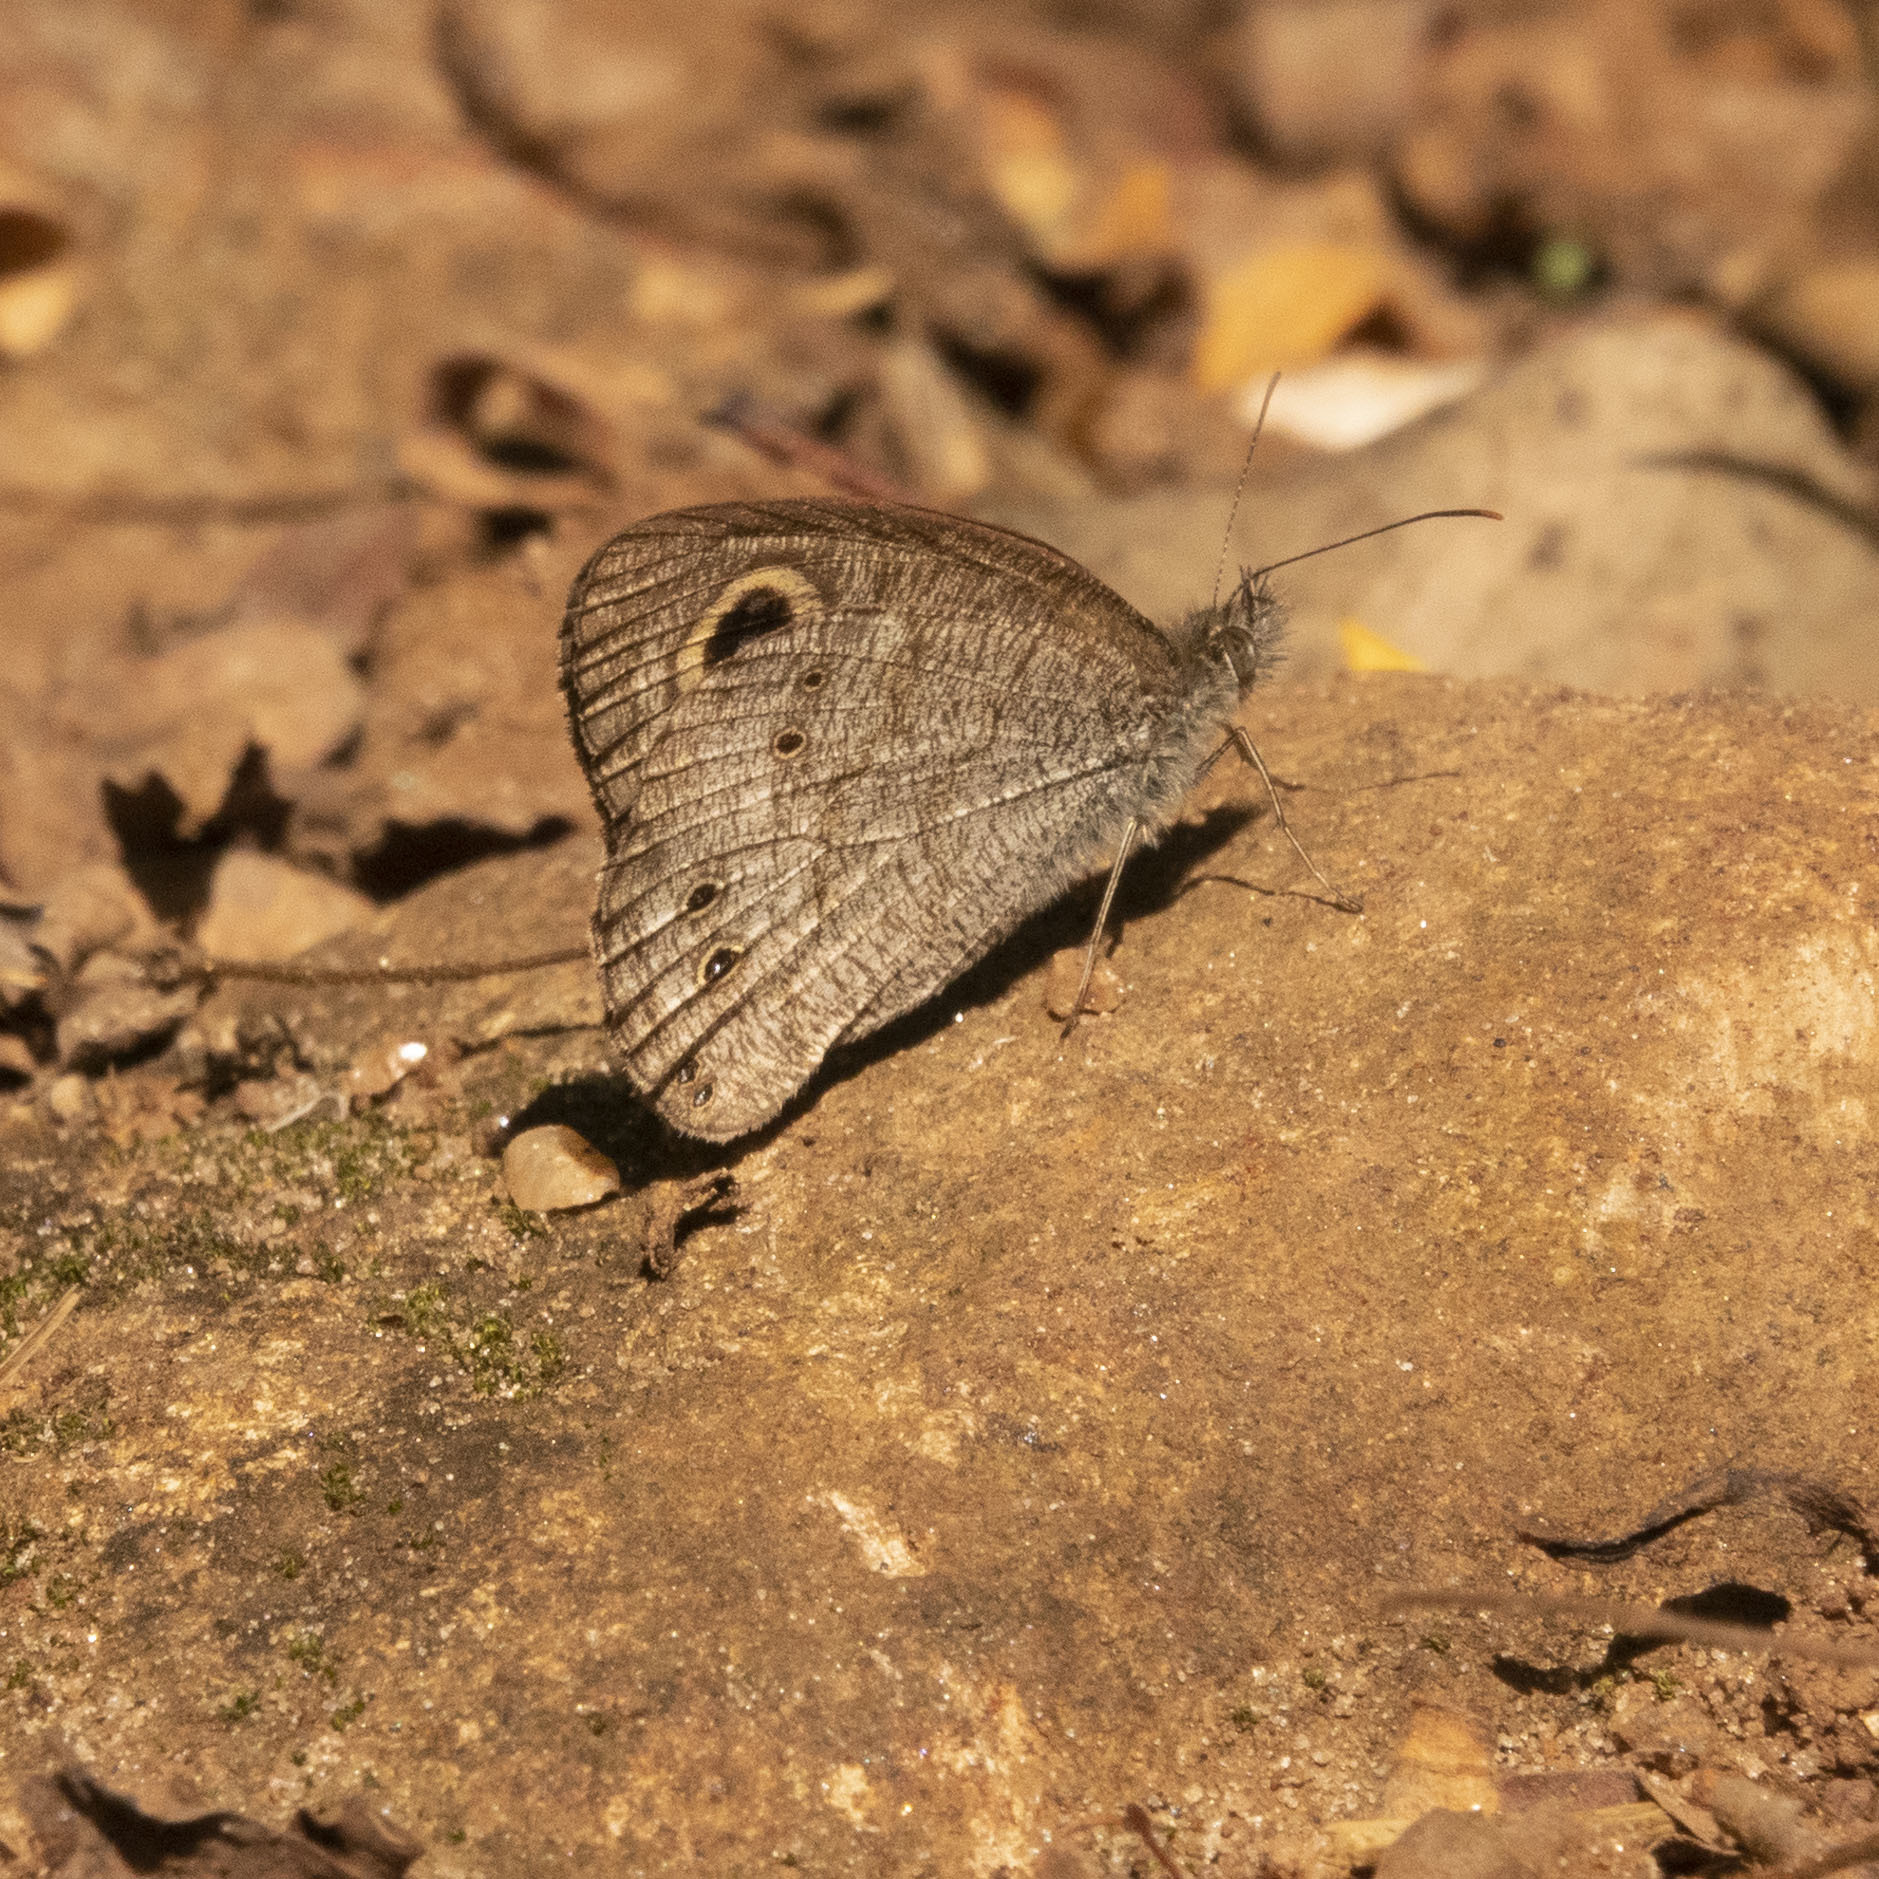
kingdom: Animalia
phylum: Arthropoda
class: Insecta
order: Lepidoptera
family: Nymphalidae
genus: Ypthima
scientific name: Ypthima baldus
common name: Common five-ring
